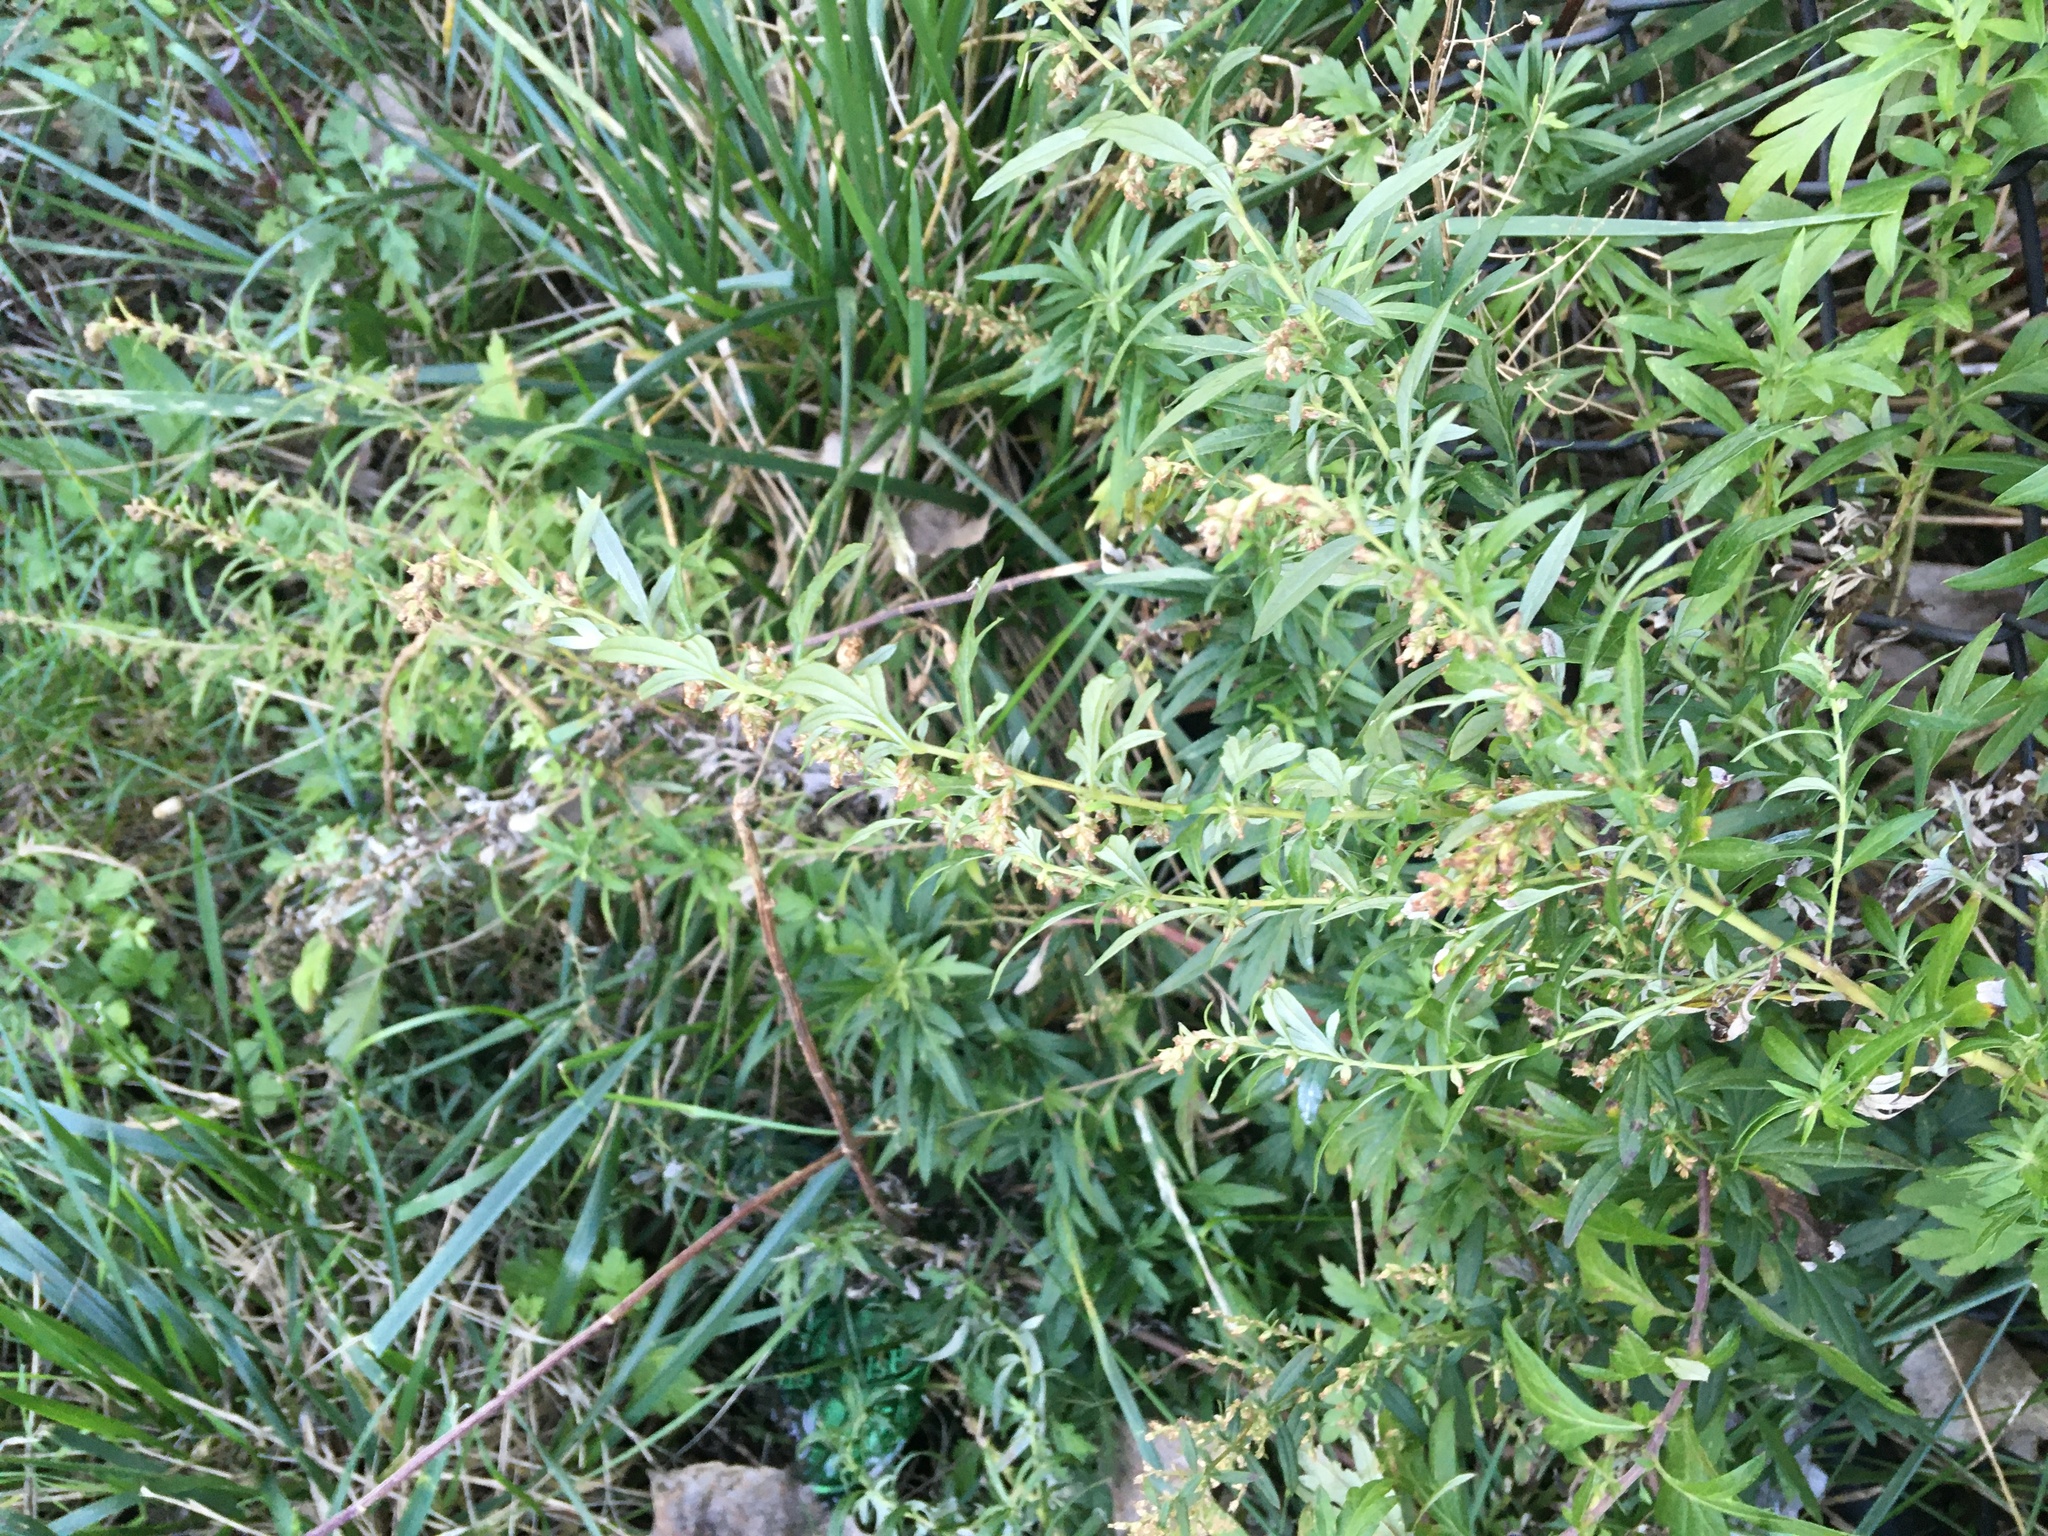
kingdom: Plantae
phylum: Tracheophyta
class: Magnoliopsida
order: Asterales
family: Asteraceae
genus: Artemisia
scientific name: Artemisia vulgaris
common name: Mugwort
